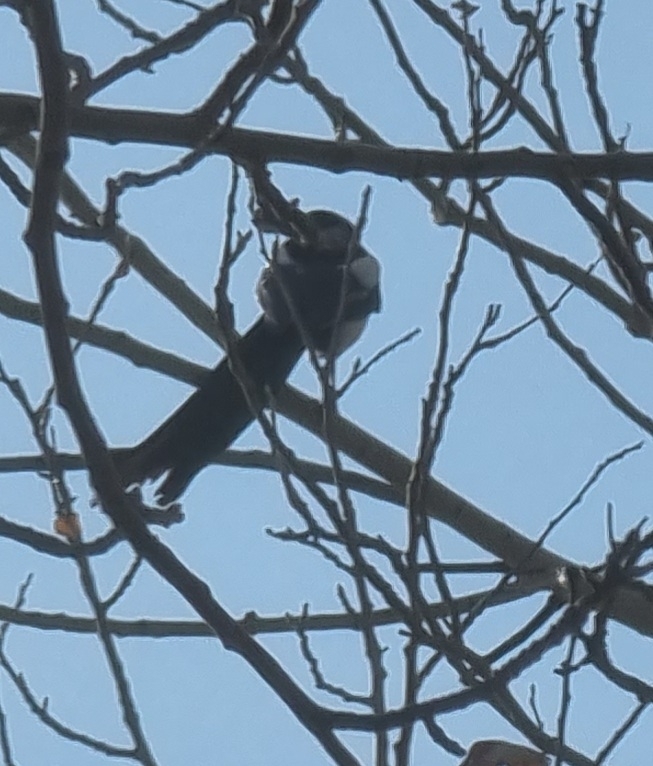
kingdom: Animalia
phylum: Chordata
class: Aves
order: Passeriformes
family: Corvidae
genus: Pica
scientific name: Pica pica
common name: Eurasian magpie
